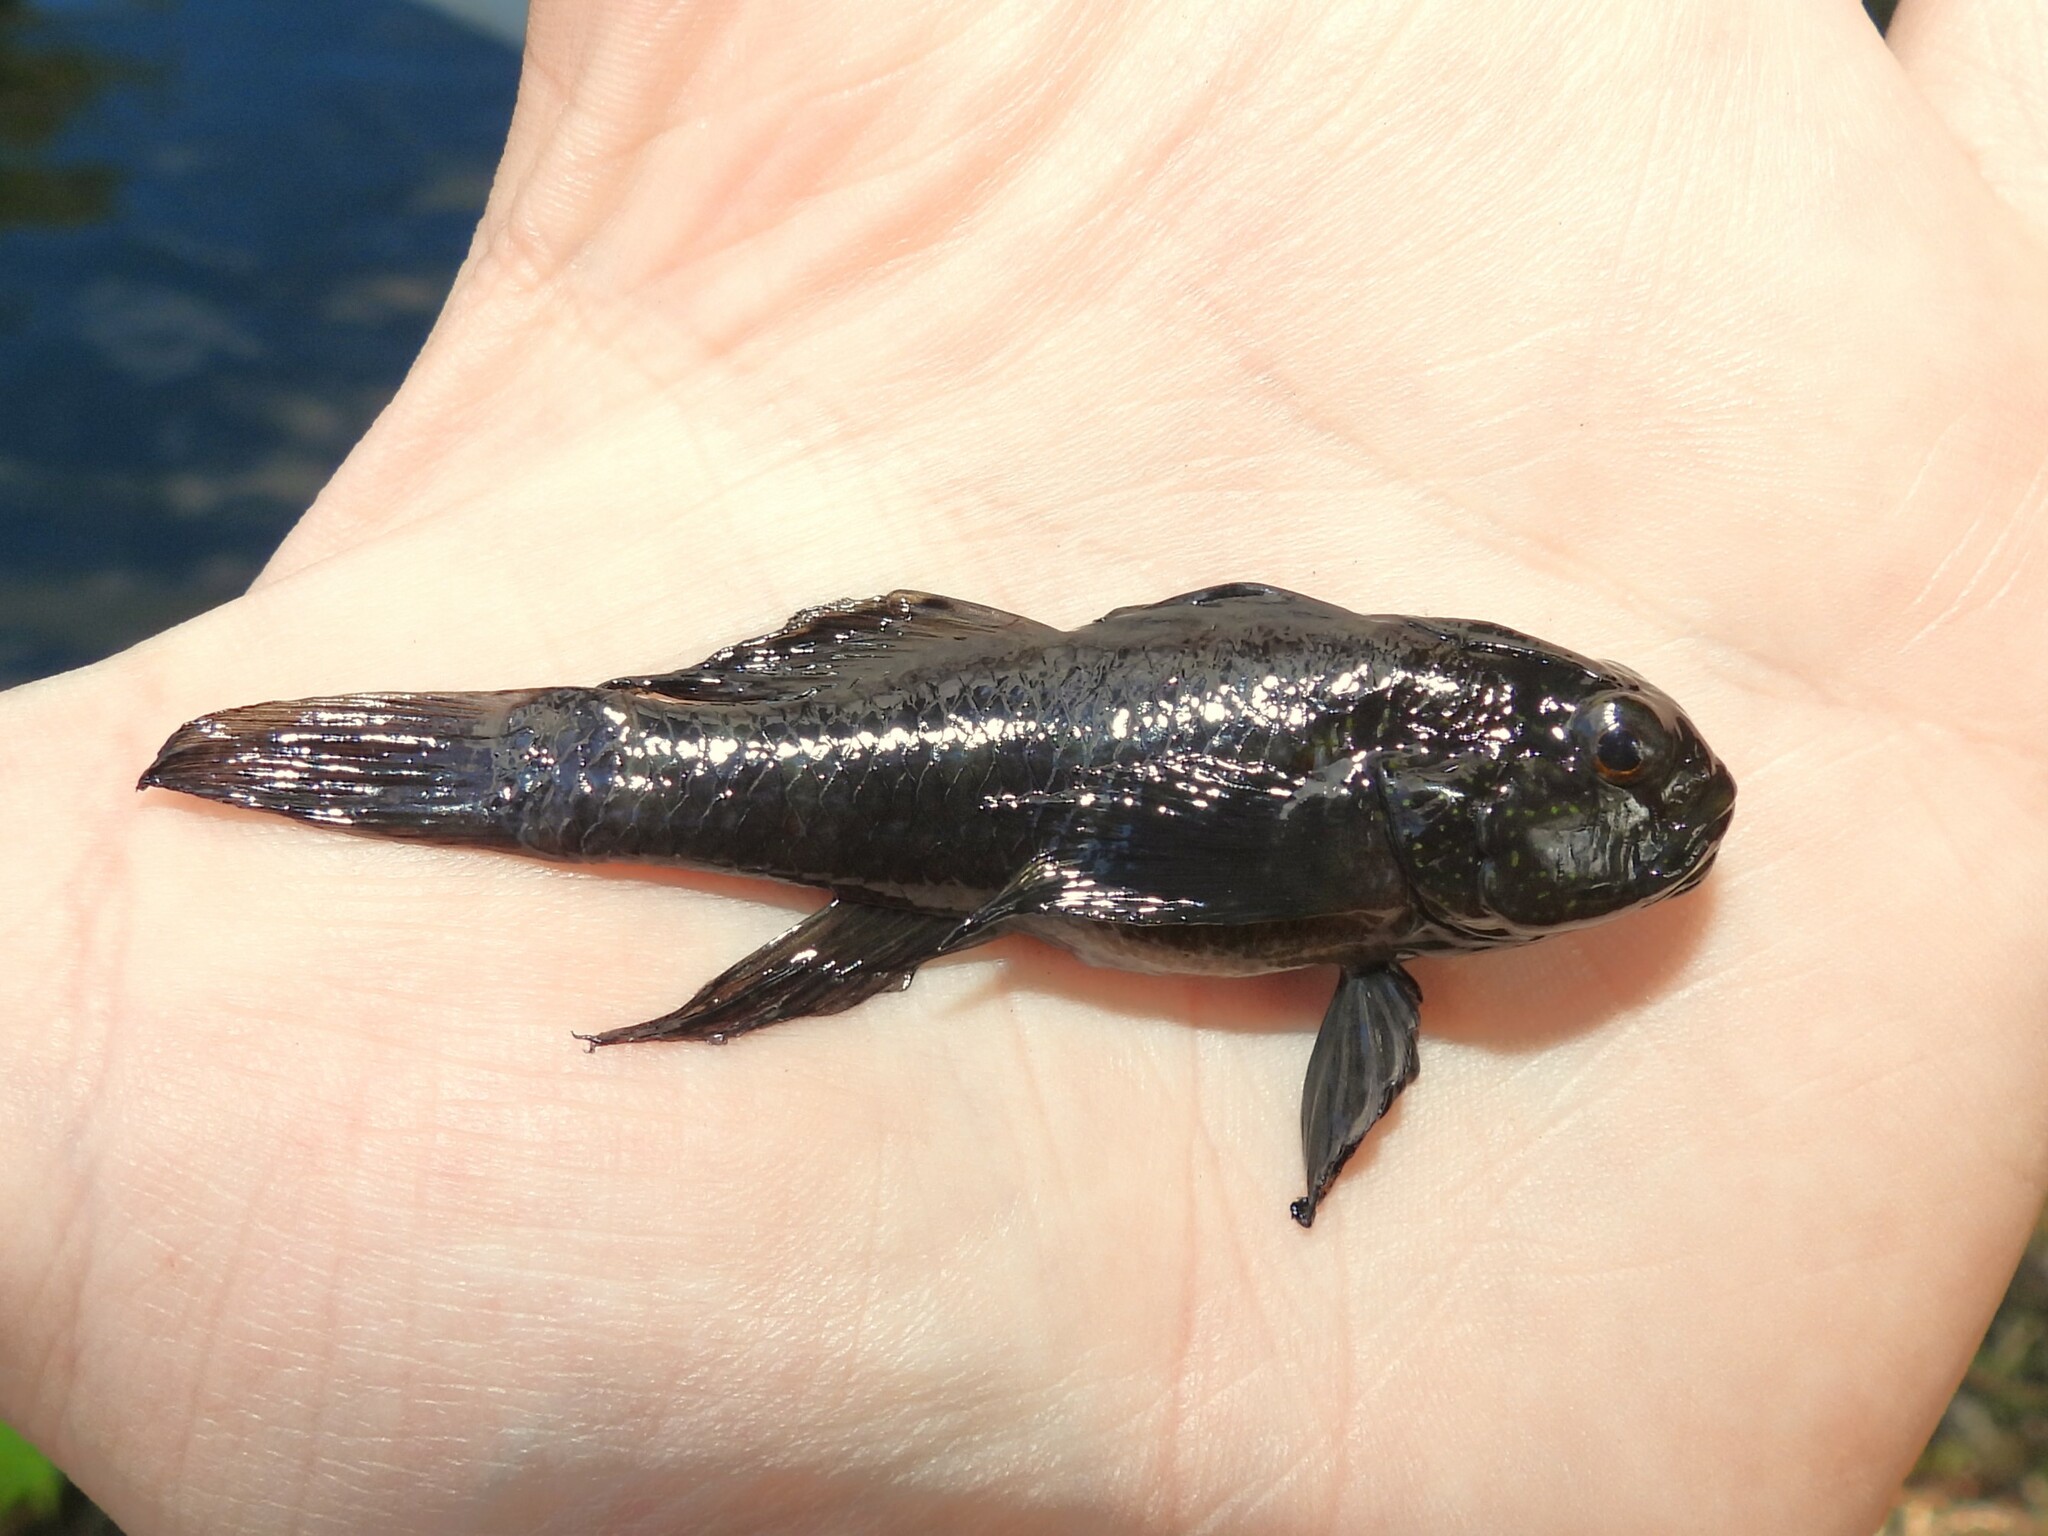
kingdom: Animalia
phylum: Chordata
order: Perciformes
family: Gobiidae
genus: Lophogobius
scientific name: Lophogobius cyprinoides
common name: Crested goby
